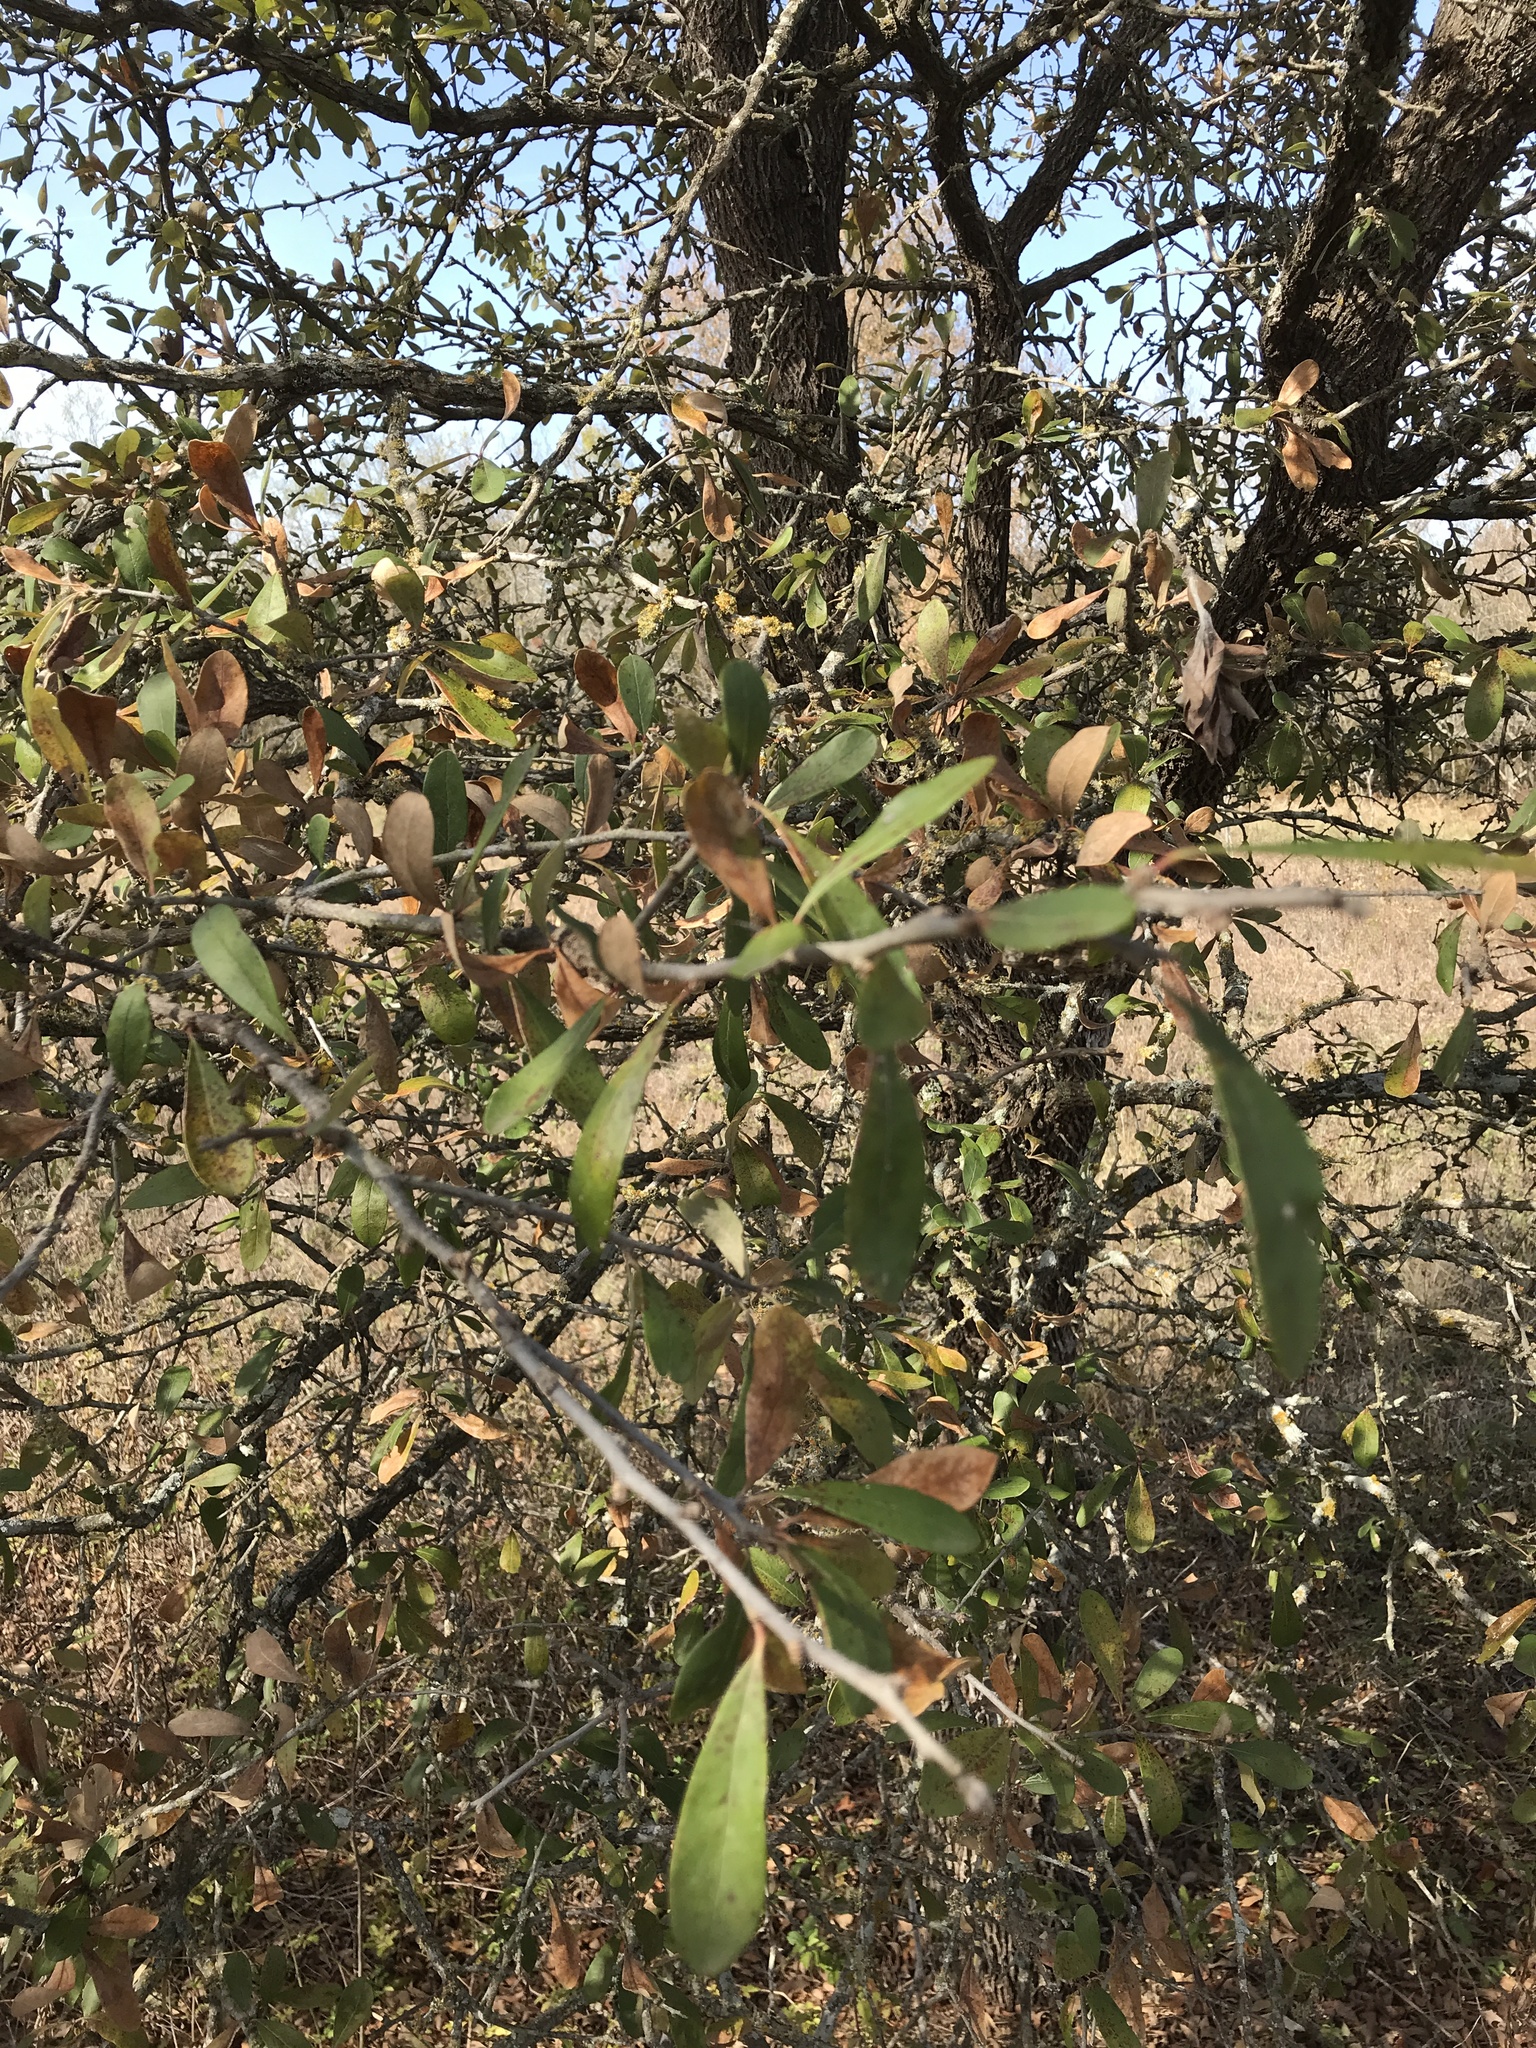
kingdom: Plantae
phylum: Tracheophyta
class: Magnoliopsida
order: Ericales
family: Sapotaceae
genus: Sideroxylon
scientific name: Sideroxylon lanuginosum
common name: Chittamwood
